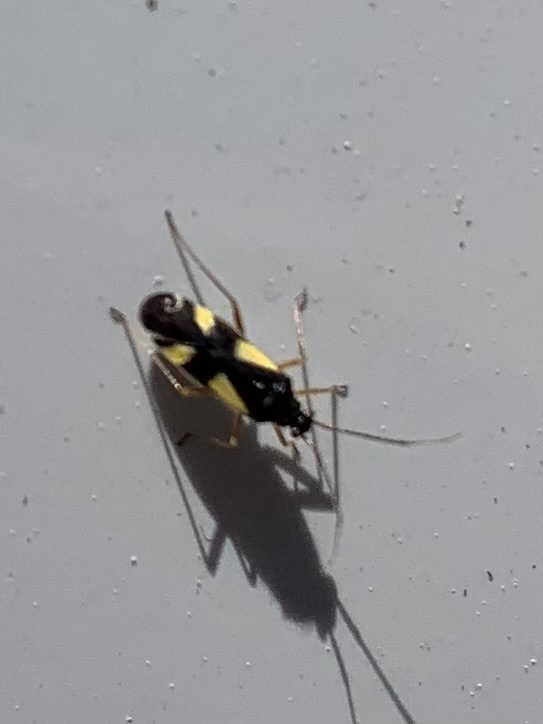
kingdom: Animalia
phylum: Arthropoda
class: Insecta
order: Hemiptera
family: Miridae
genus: Dryophilocoris
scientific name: Dryophilocoris flavoquadrimaculatus
